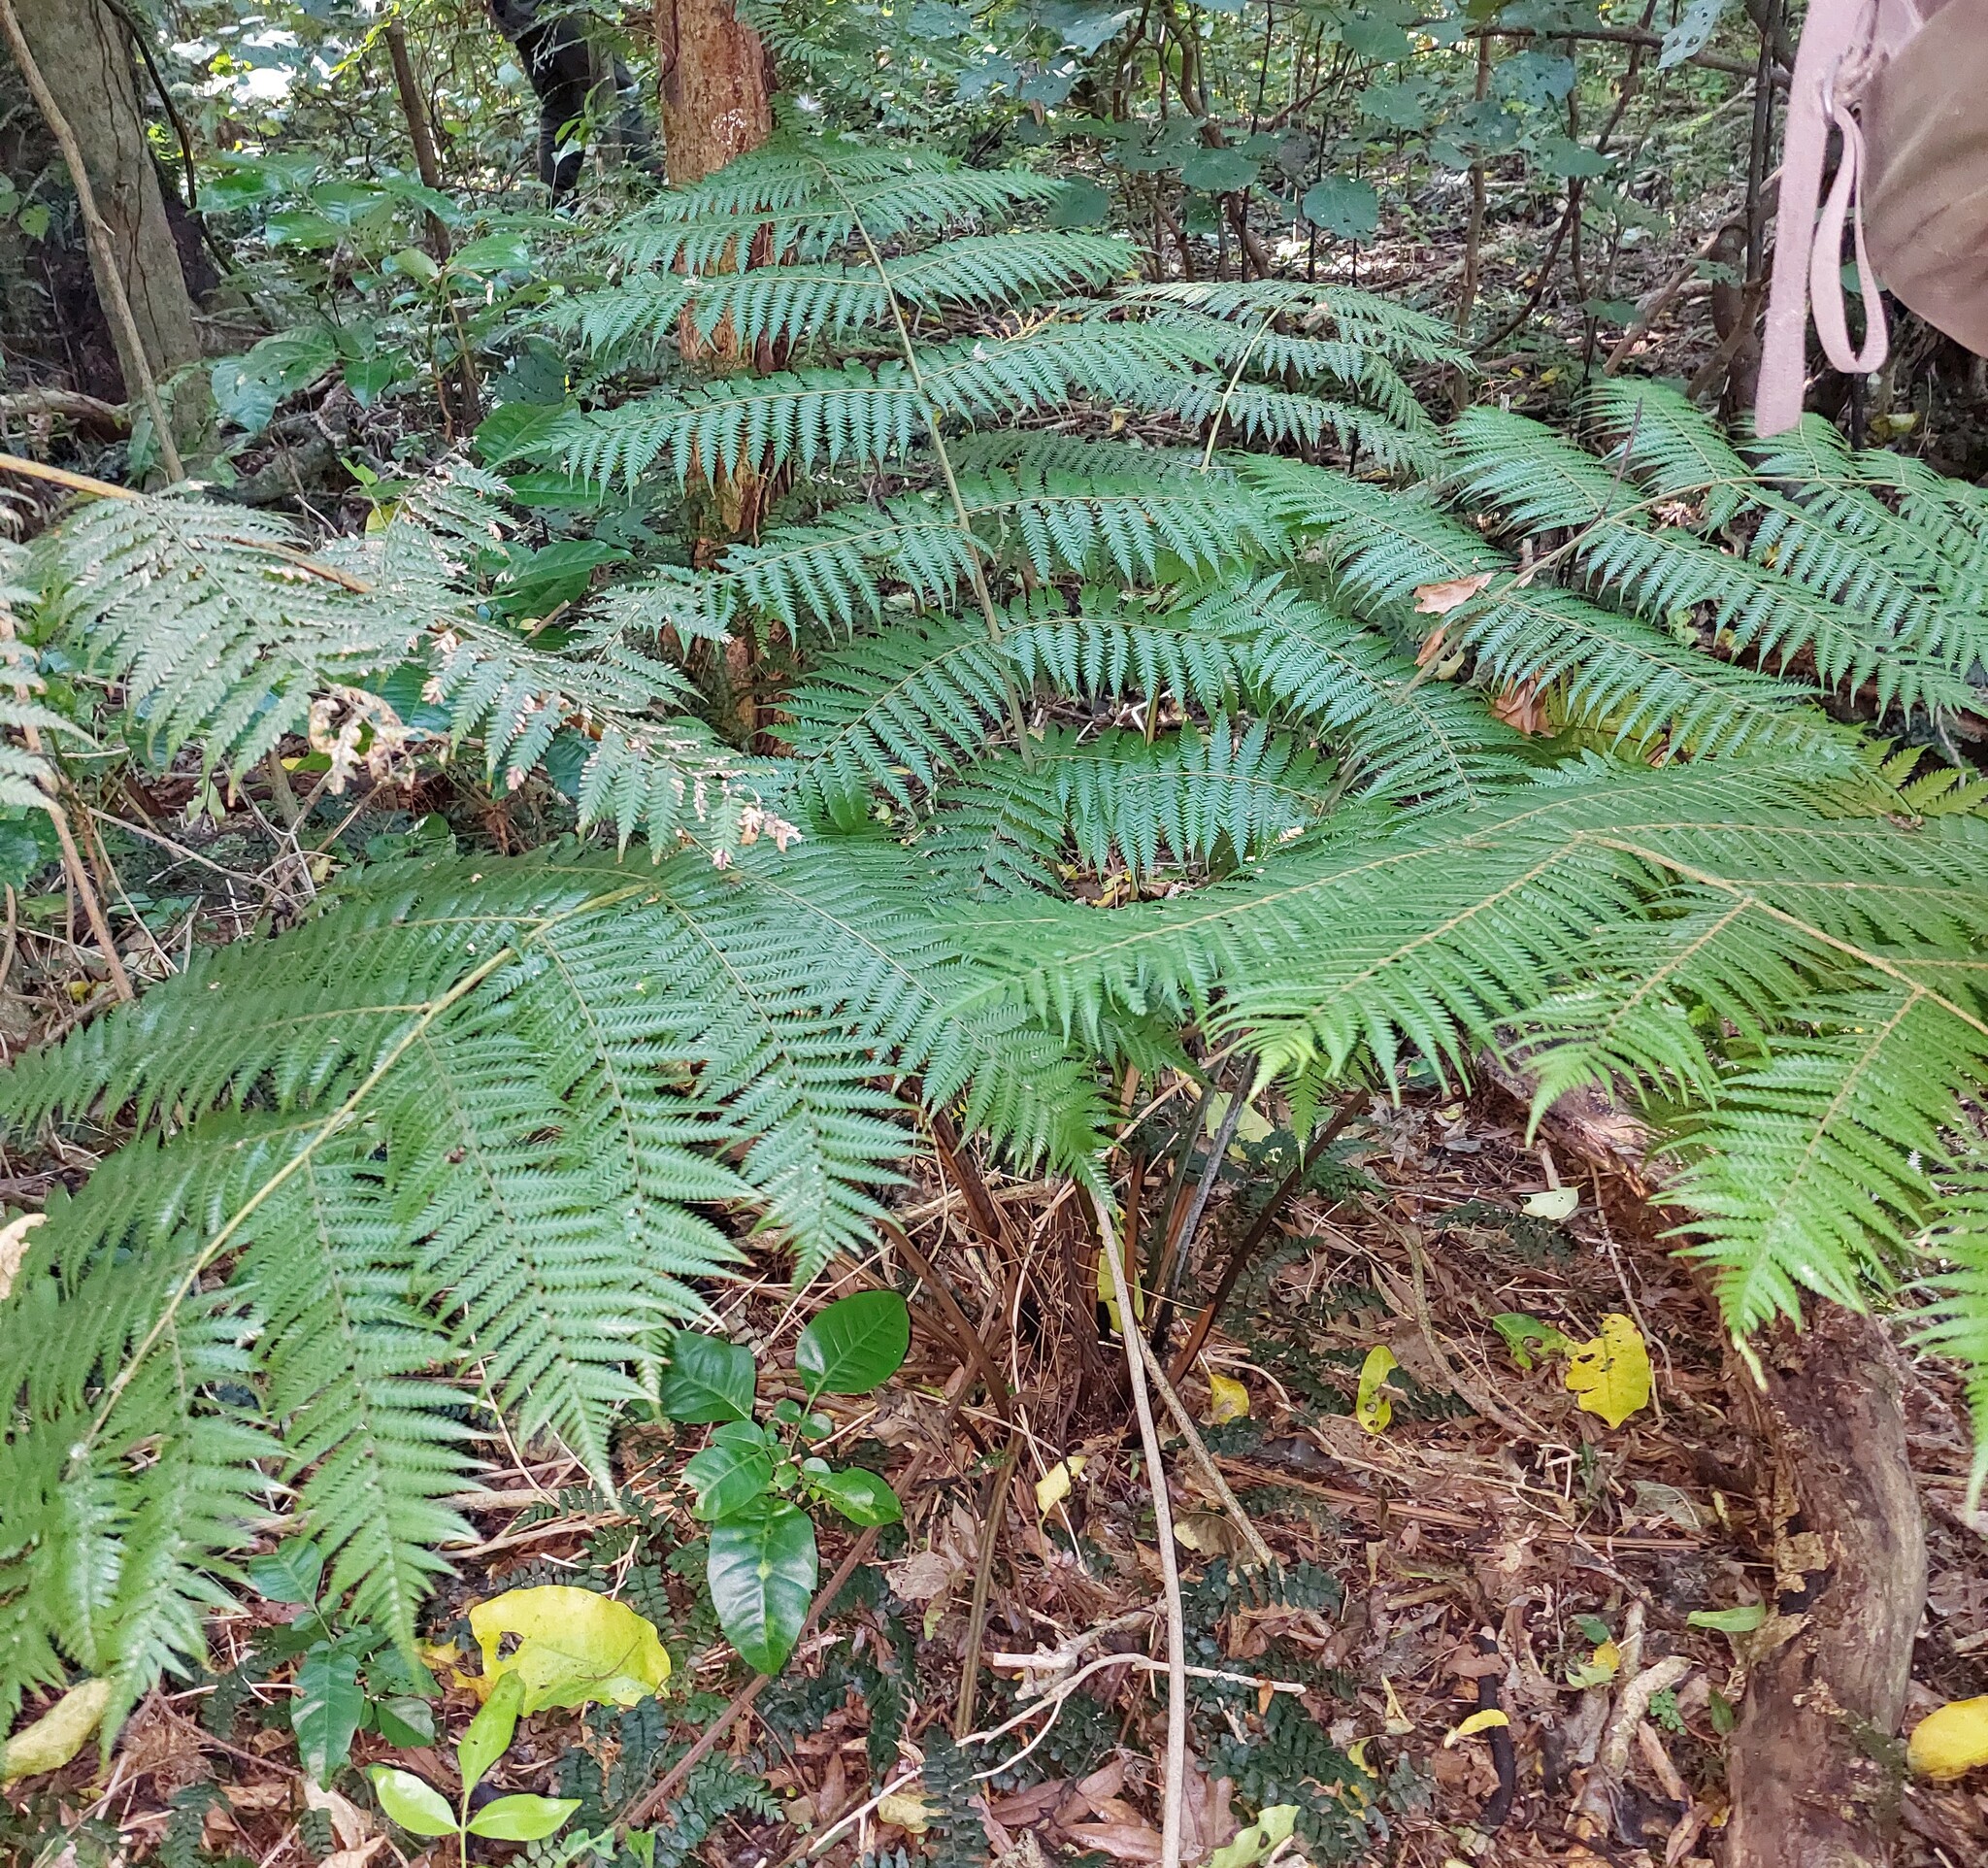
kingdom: Plantae
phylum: Tracheophyta
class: Polypodiopsida
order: Cyatheales
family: Cyatheaceae
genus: Alsophila
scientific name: Alsophila dealbata
